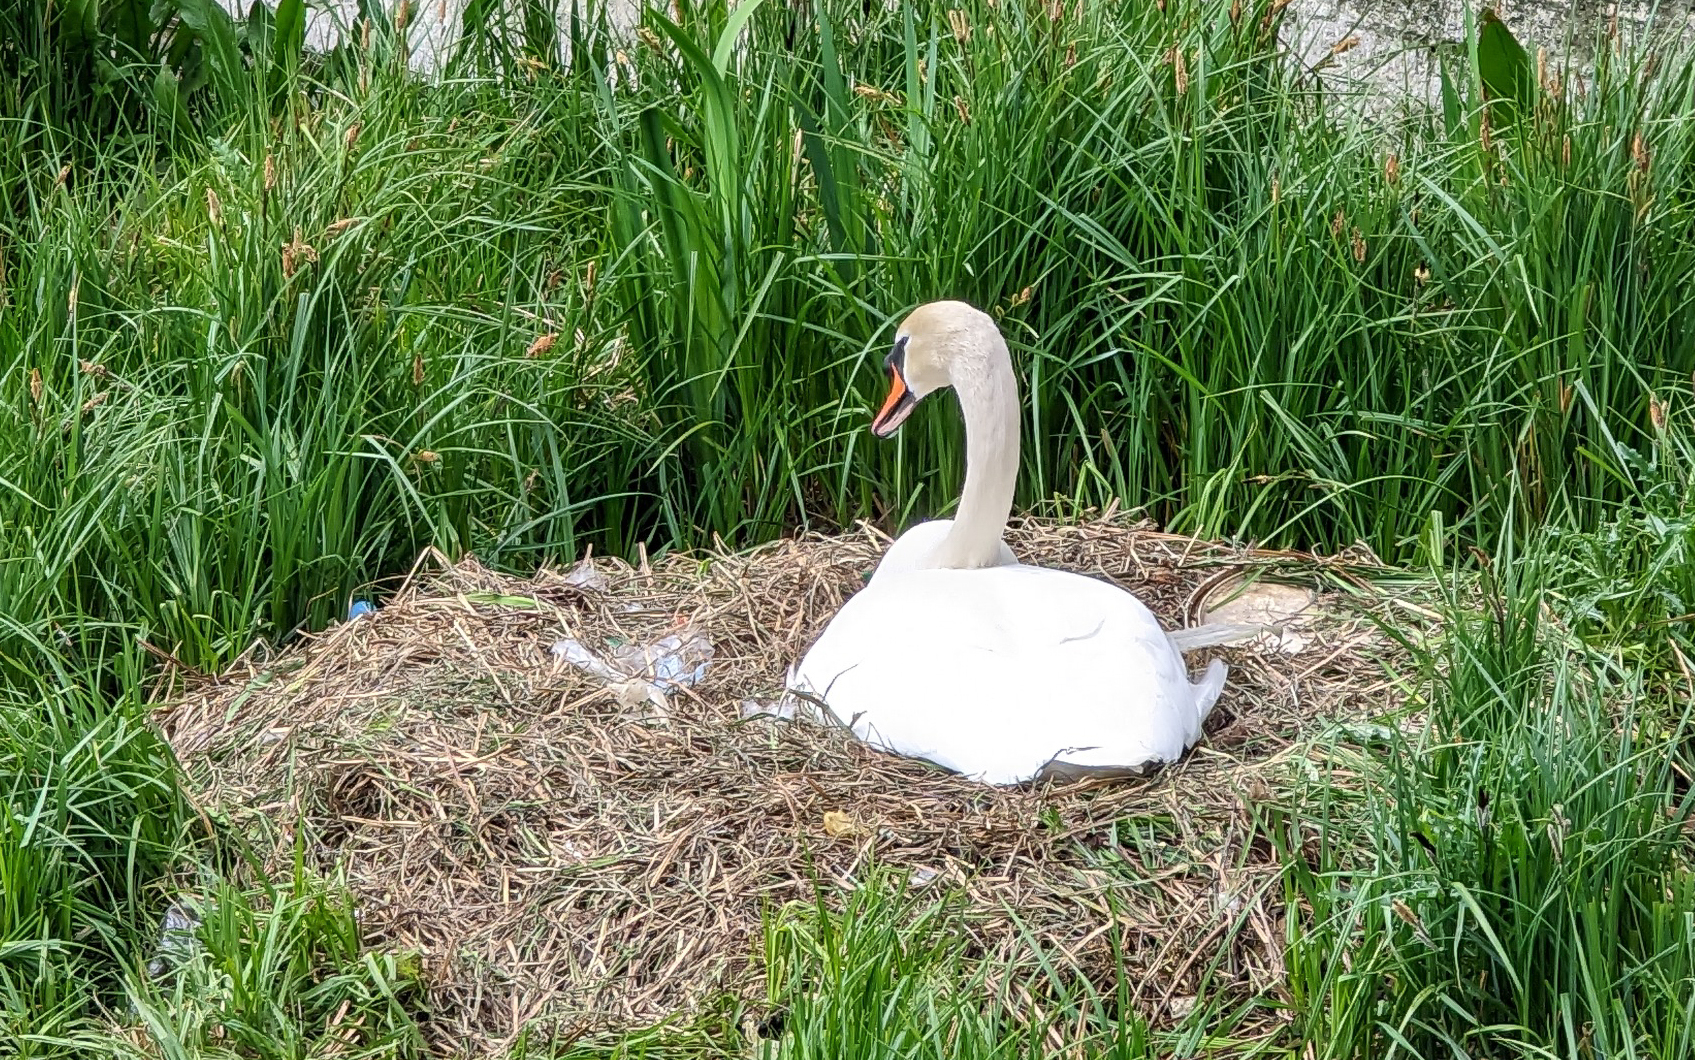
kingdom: Animalia
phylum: Chordata
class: Aves
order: Anseriformes
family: Anatidae
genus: Cygnus
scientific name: Cygnus olor
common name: Mute swan
